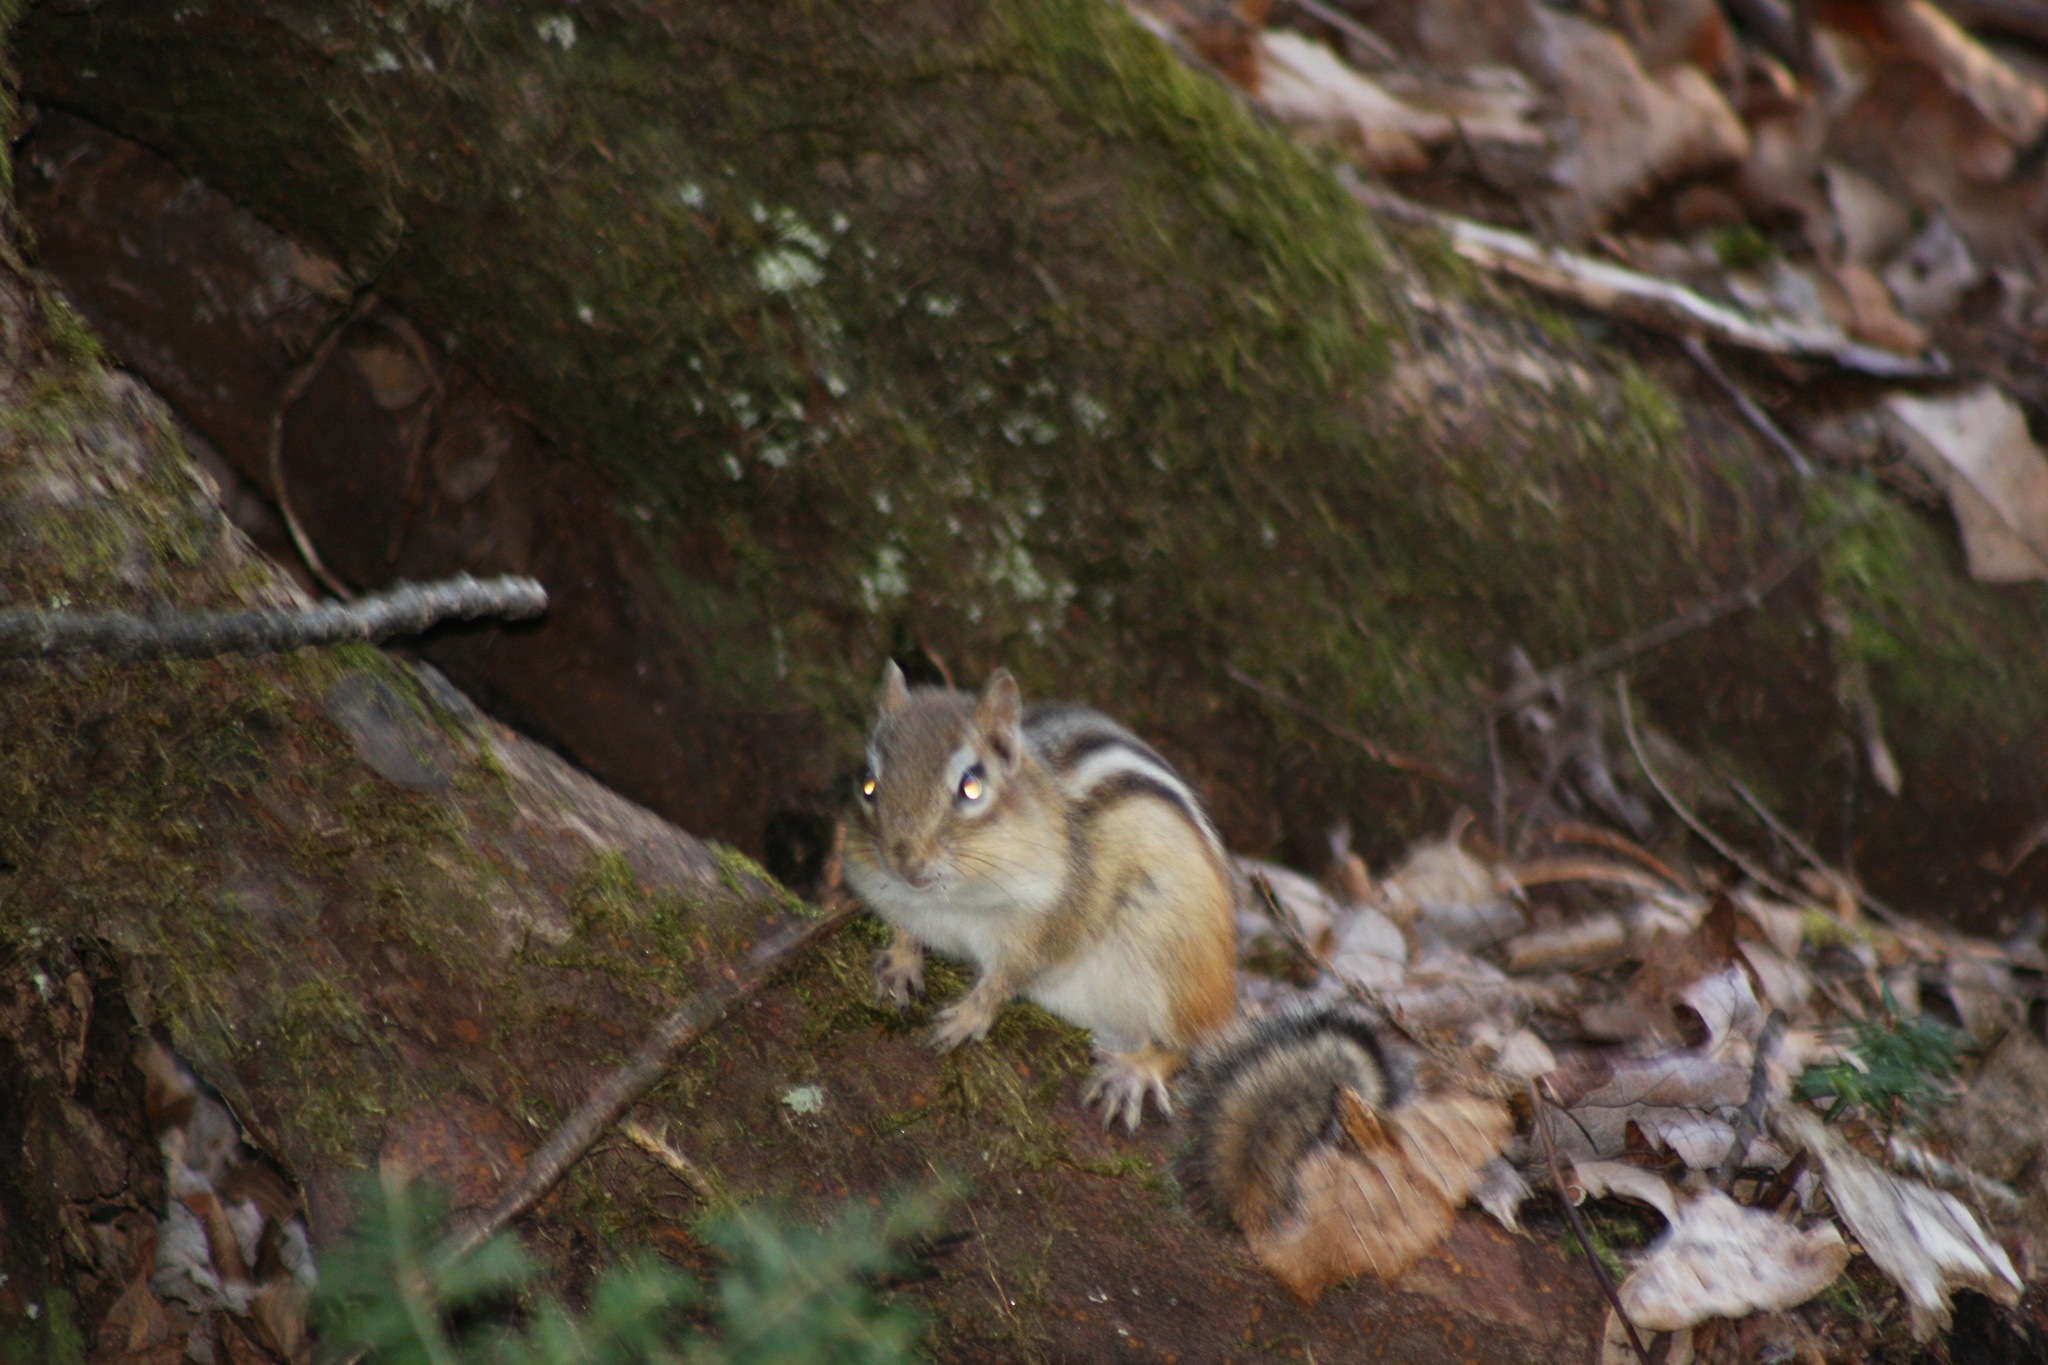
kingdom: Animalia
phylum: Chordata
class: Mammalia
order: Rodentia
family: Sciuridae
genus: Tamias
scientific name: Tamias striatus
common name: Eastern chipmunk
